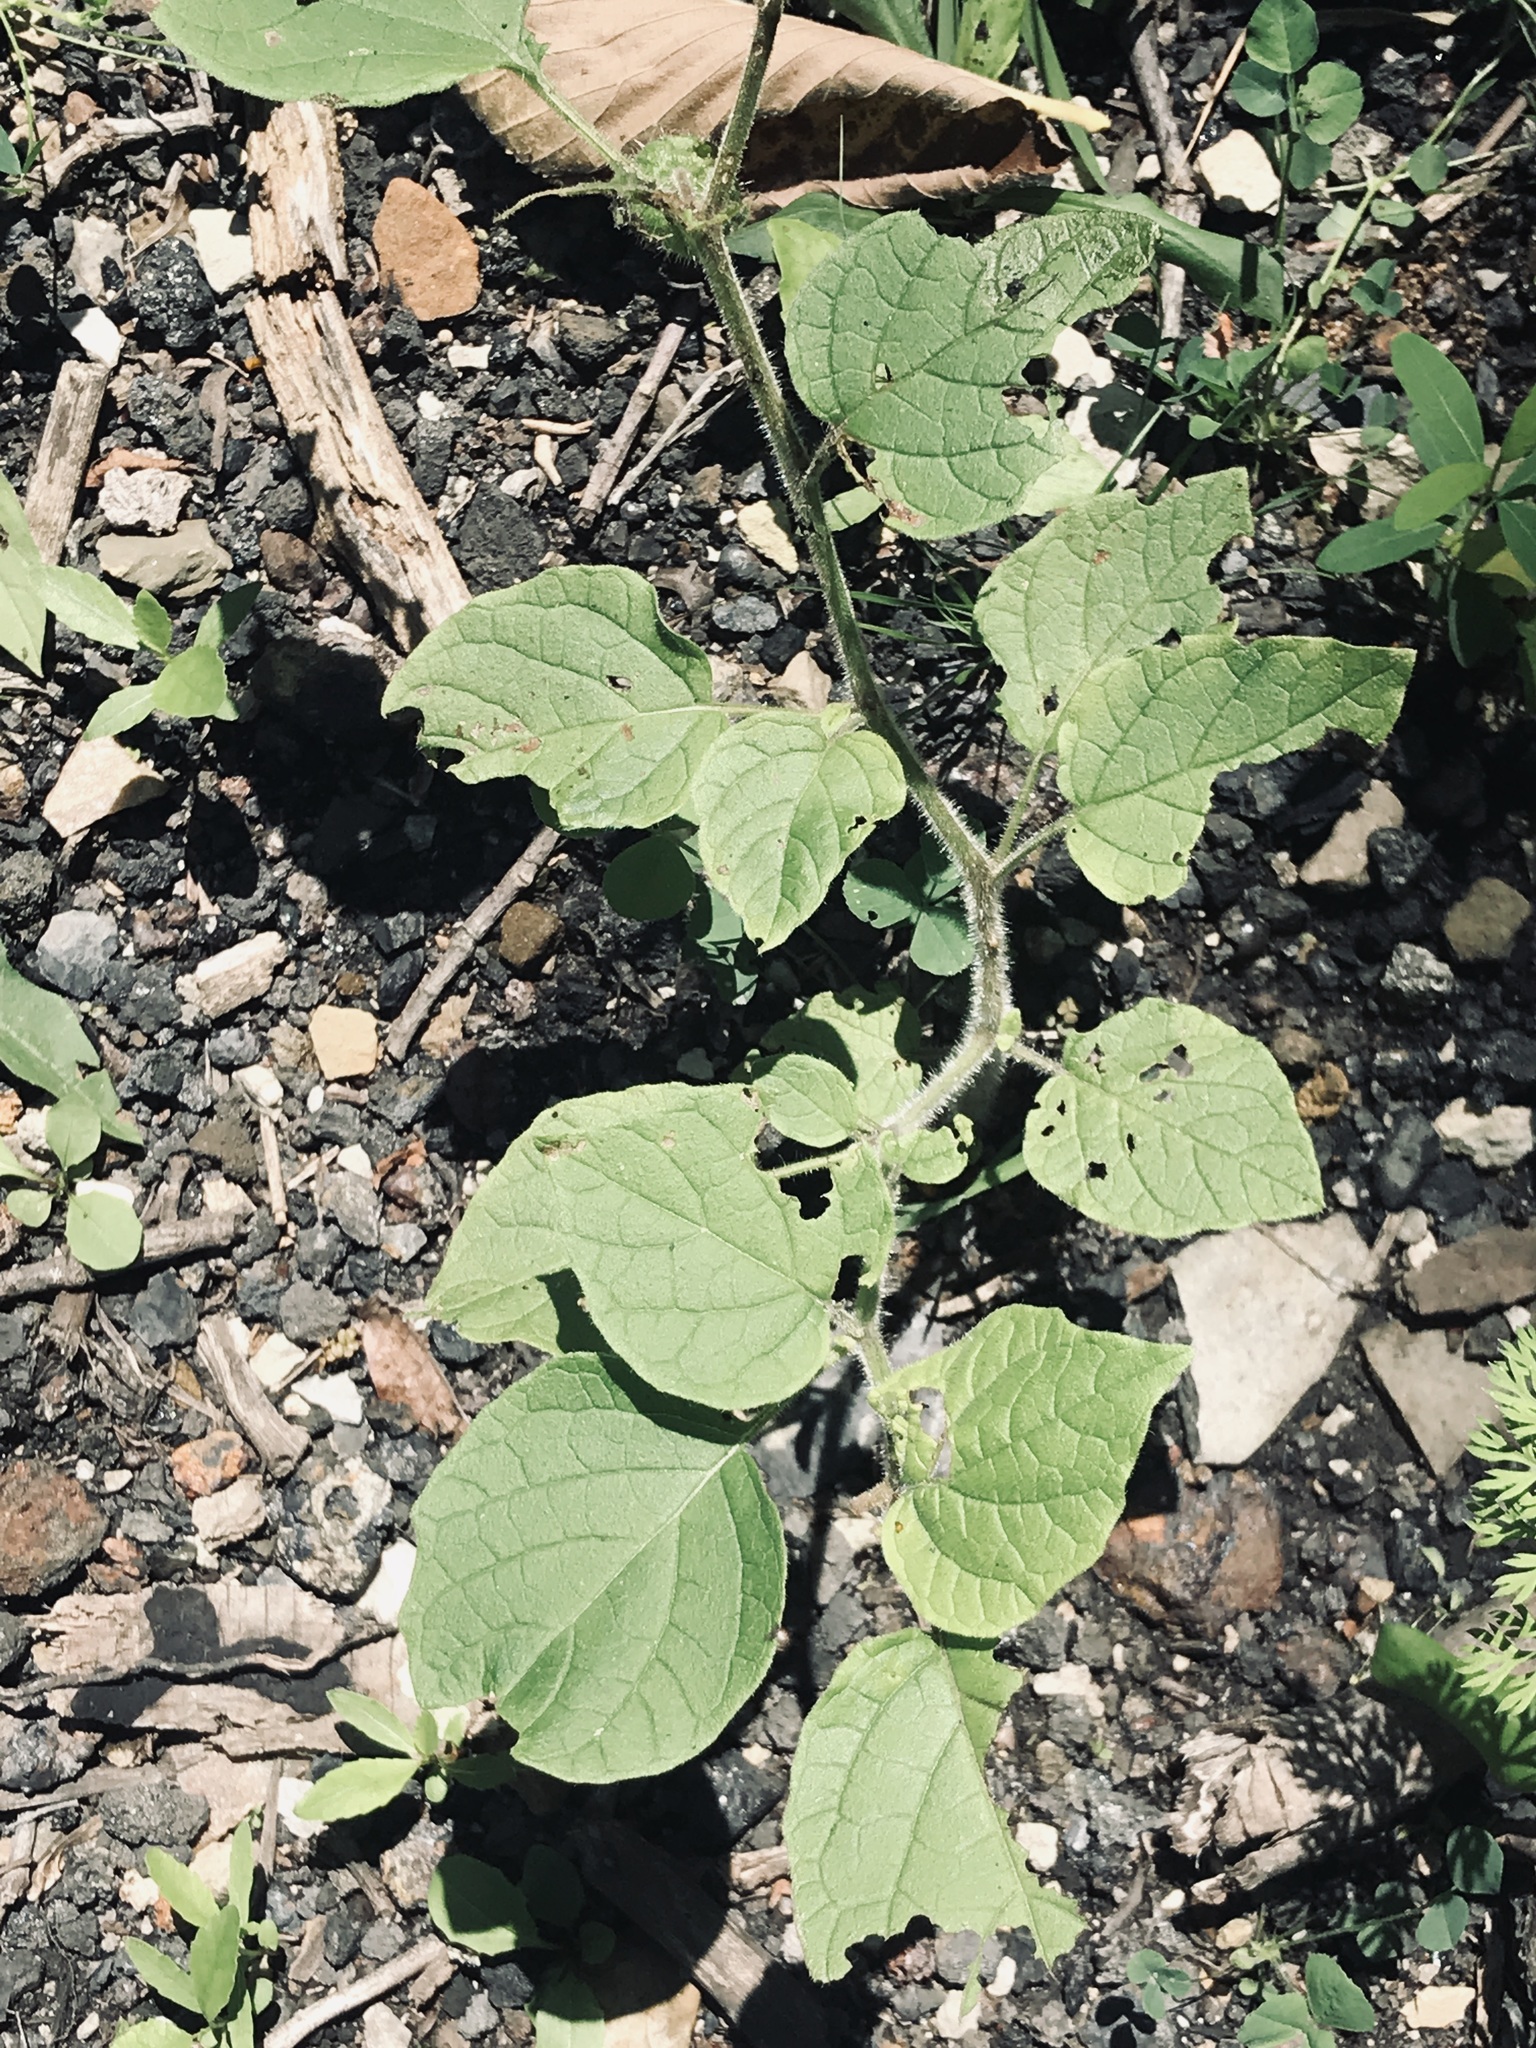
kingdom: Plantae
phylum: Tracheophyta
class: Magnoliopsida
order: Solanales
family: Solanaceae
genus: Physalis
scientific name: Physalis heterophylla
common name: Clammy ground-cherry
